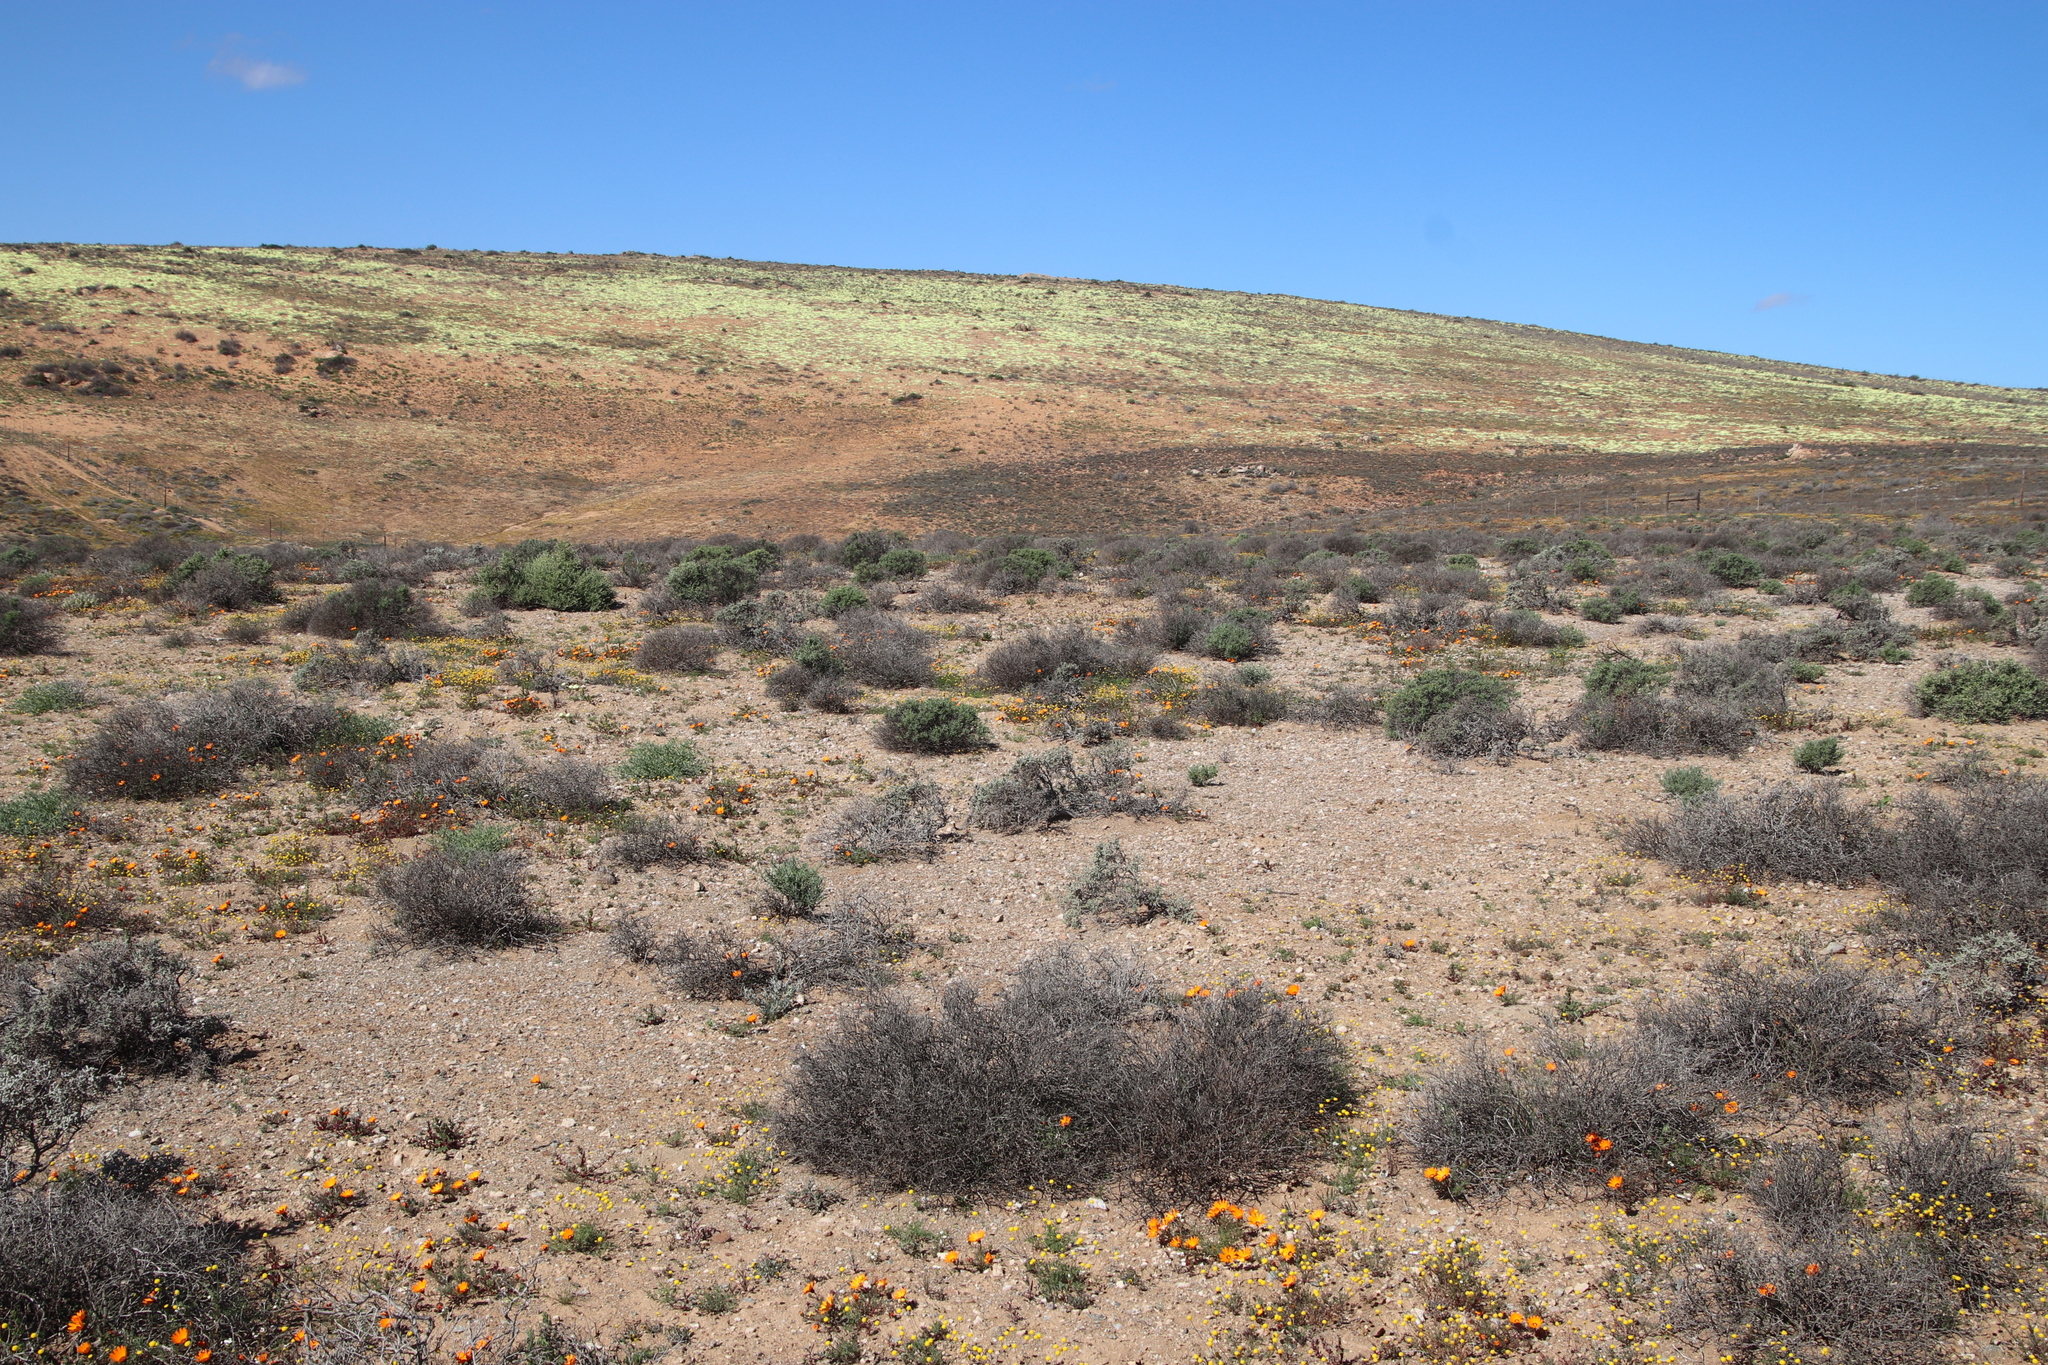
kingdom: Plantae
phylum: Tracheophyta
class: Magnoliopsida
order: Asterales
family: Asteraceae
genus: Dimorphotheca
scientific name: Dimorphotheca pinnata
